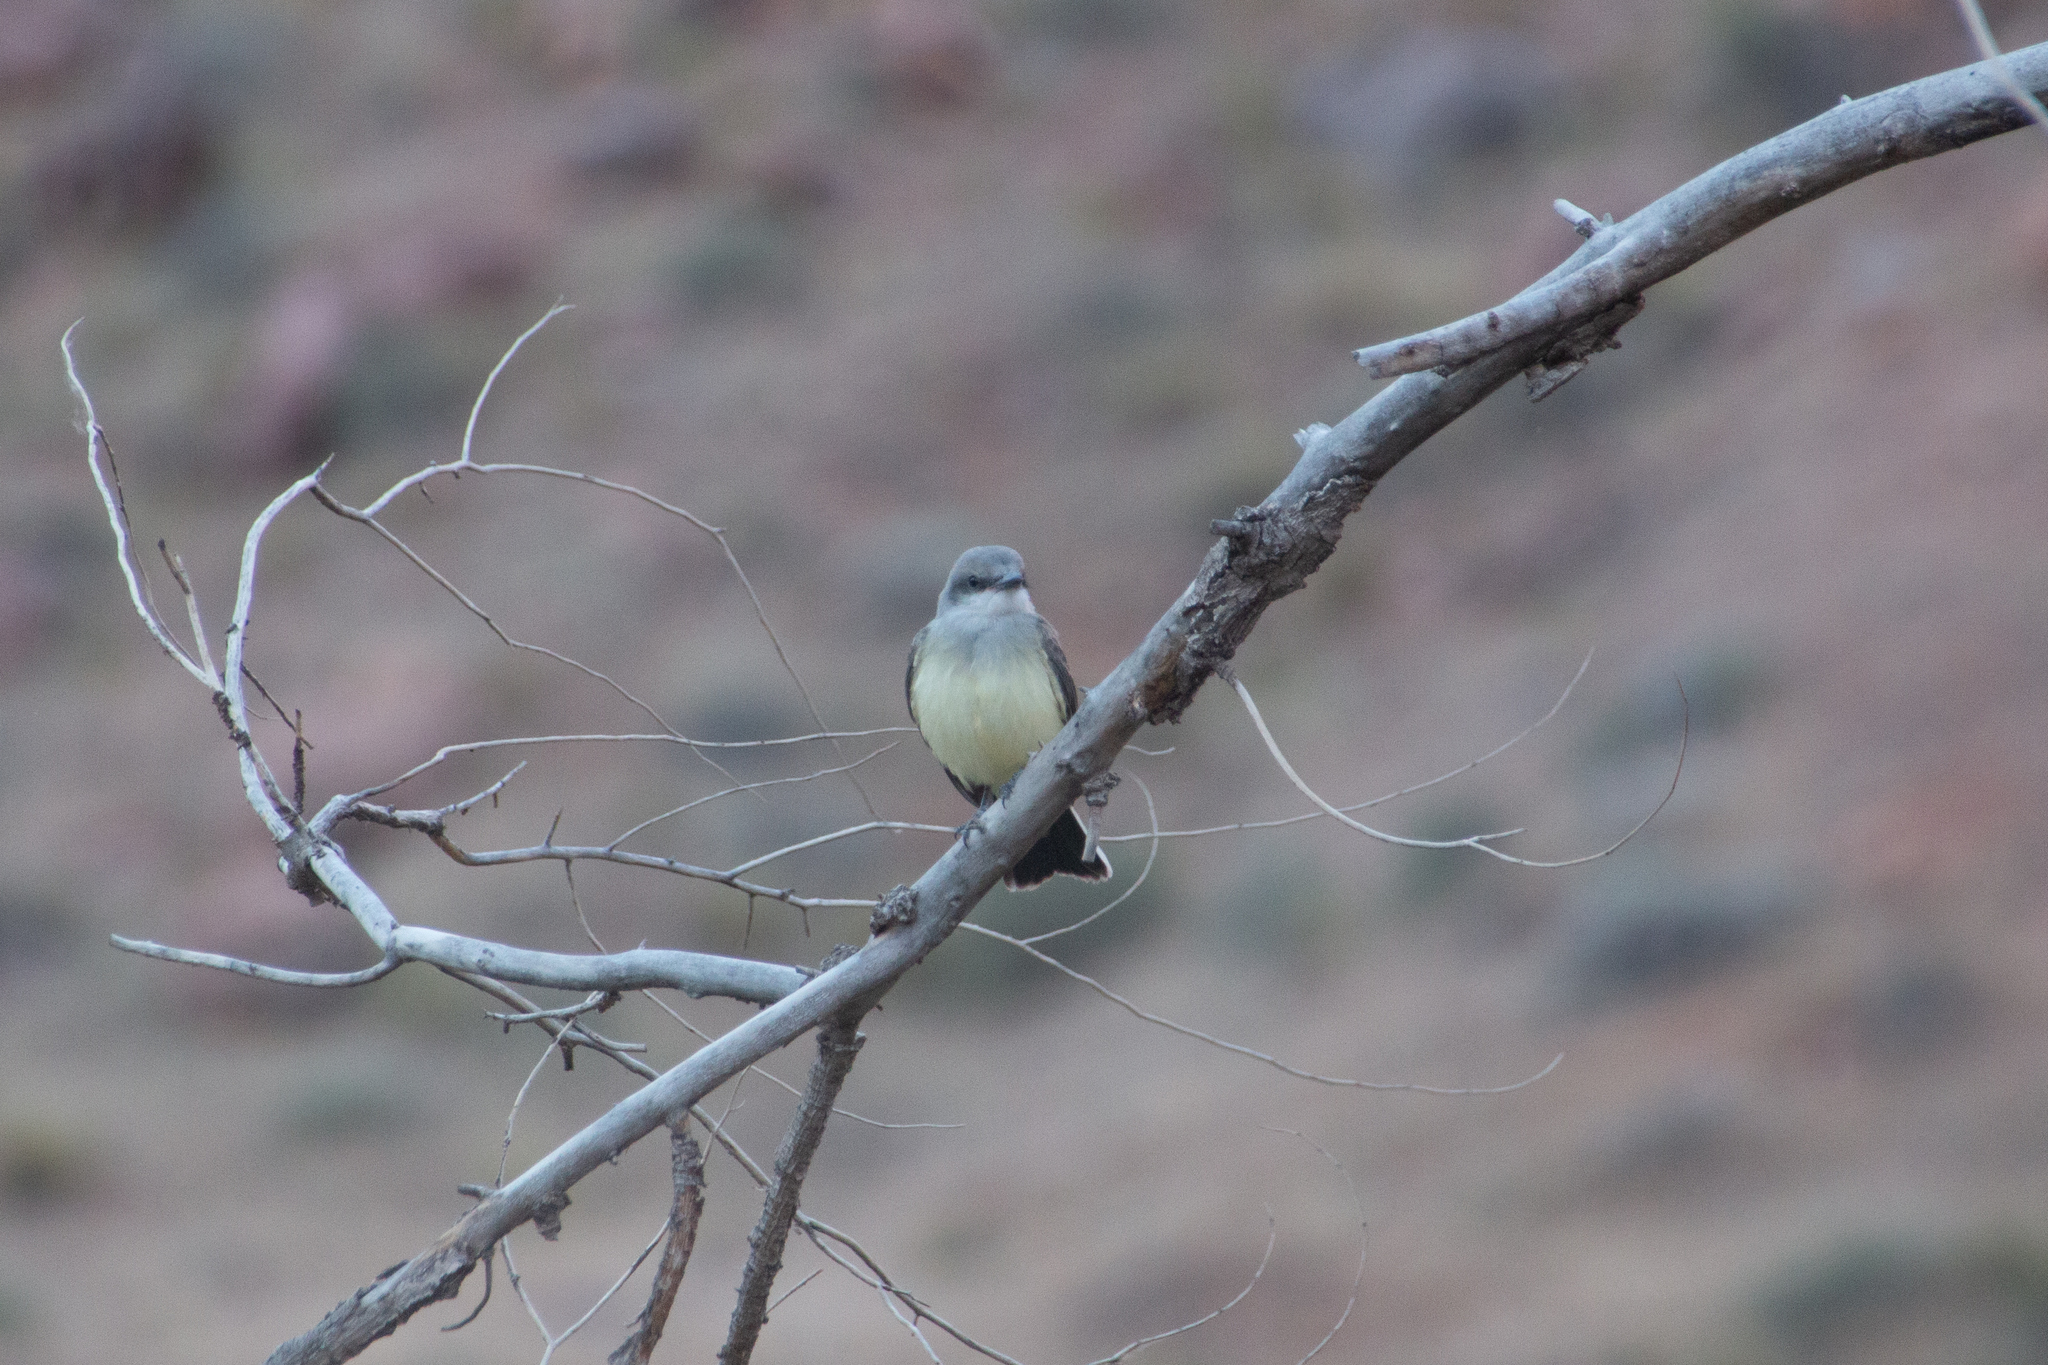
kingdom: Animalia
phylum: Chordata
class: Aves
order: Passeriformes
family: Tyrannidae
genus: Tyrannus
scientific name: Tyrannus verticalis
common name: Western kingbird
